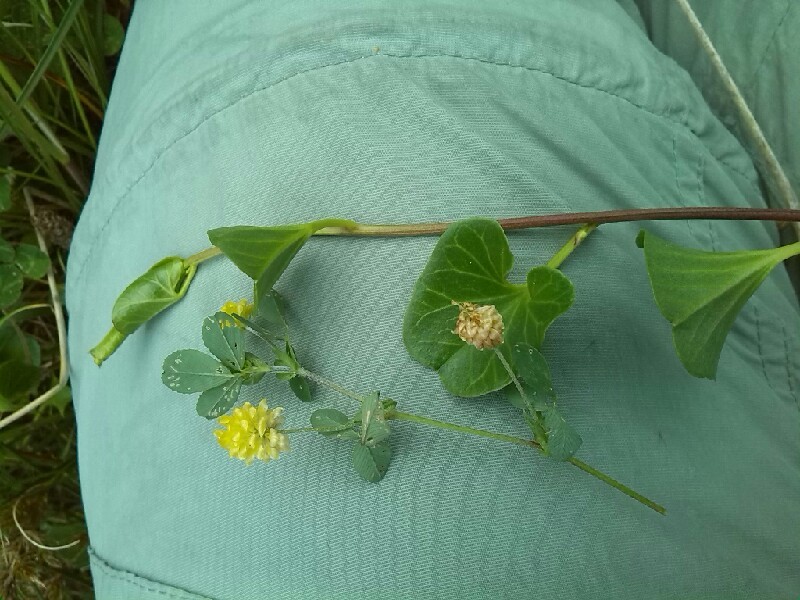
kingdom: Plantae
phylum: Tracheophyta
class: Magnoliopsida
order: Solanales
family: Convolvulaceae
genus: Calystegia
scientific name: Calystegia soldanella
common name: Sea bindweed
